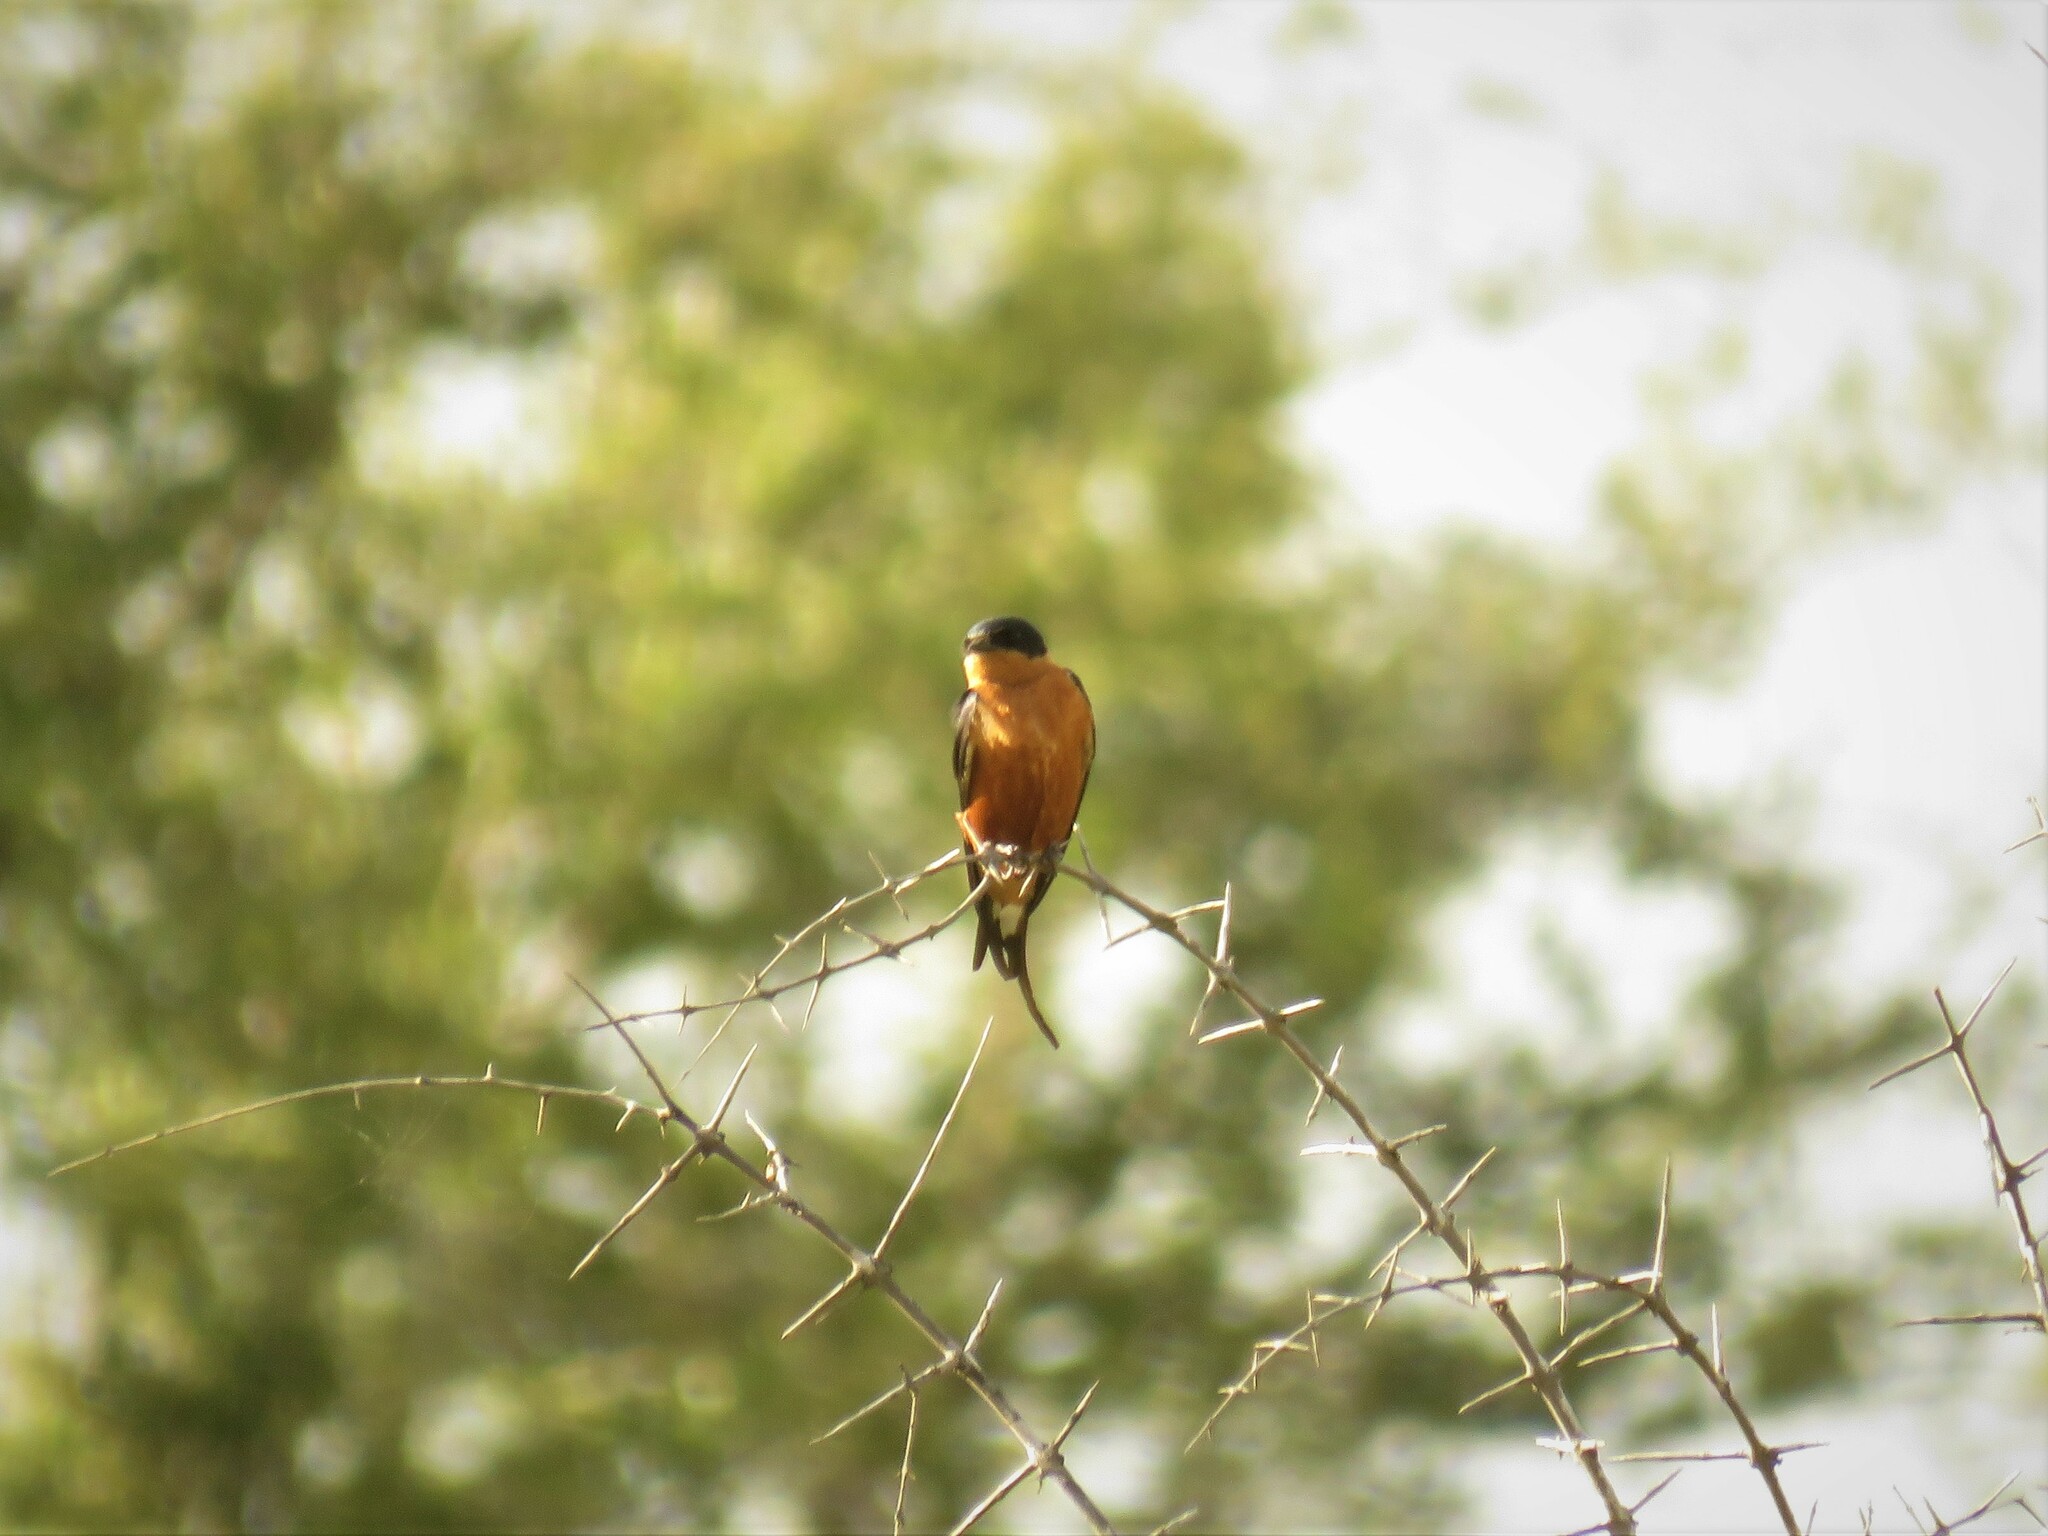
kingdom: Animalia
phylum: Chordata
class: Aves
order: Passeriformes
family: Hirundinidae
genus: Cecropis
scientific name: Cecropis semirufa
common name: Red-breasted swallow
